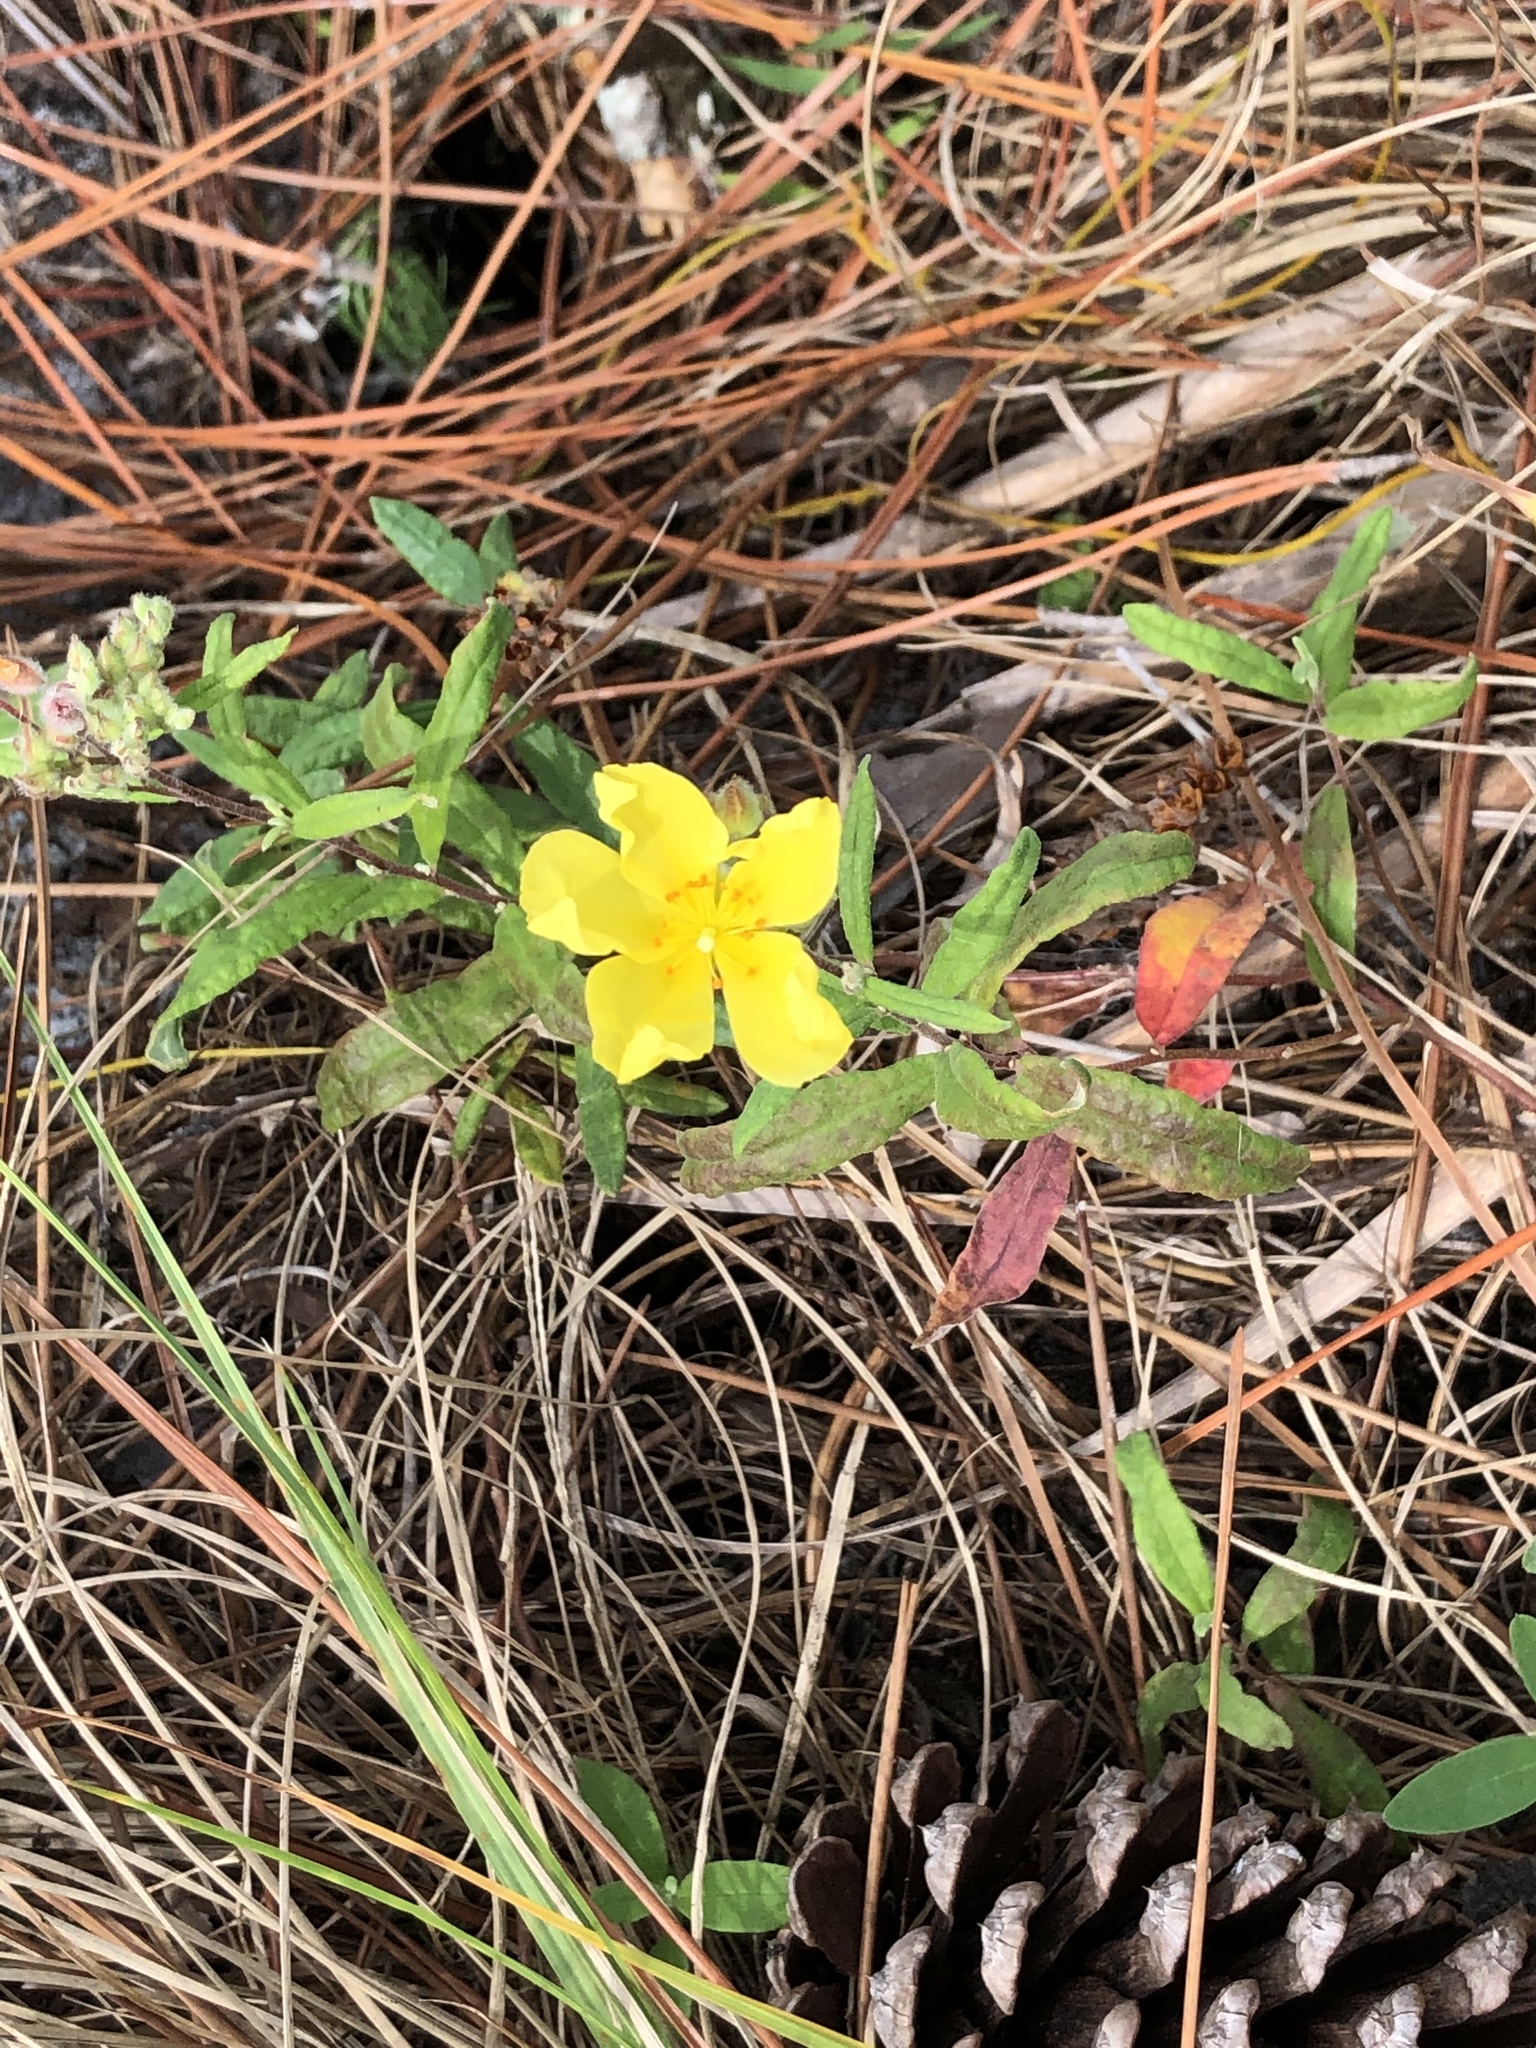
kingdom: Plantae
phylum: Tracheophyta
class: Magnoliopsida
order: Malvales
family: Cistaceae
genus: Crocanthemum
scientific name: Crocanthemum corymbosum
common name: Pinebarren sun-rose
